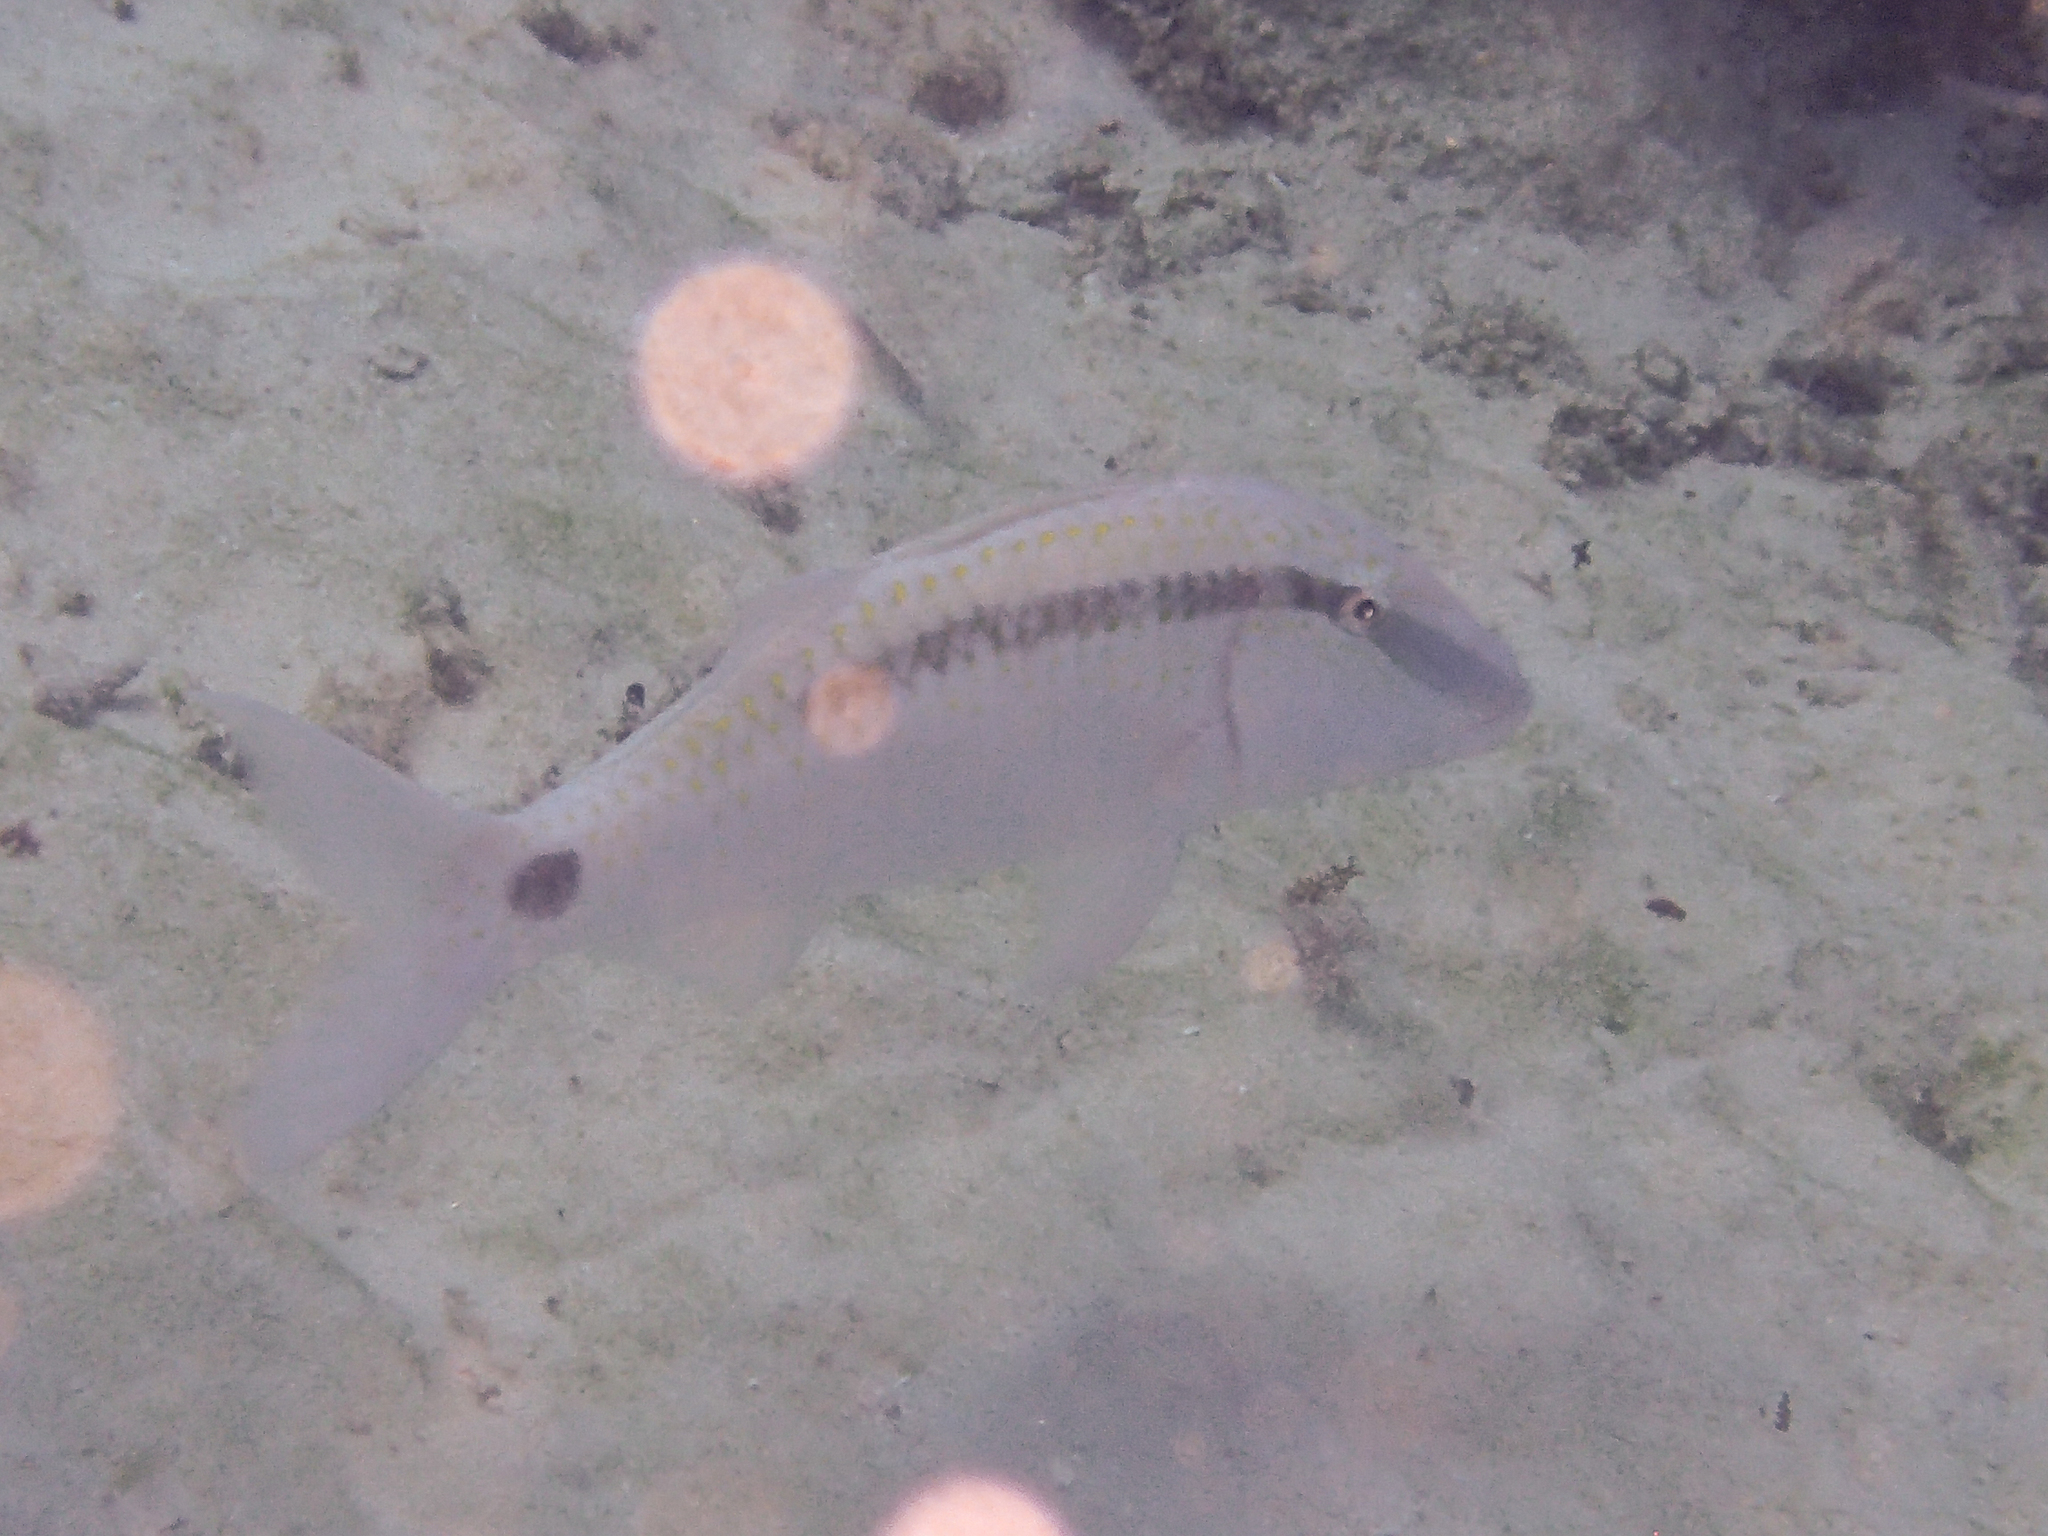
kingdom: Animalia
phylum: Chordata
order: Perciformes
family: Mullidae
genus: Parupeneus
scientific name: Parupeneus barberinus
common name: Dash-and-dot goatfish
